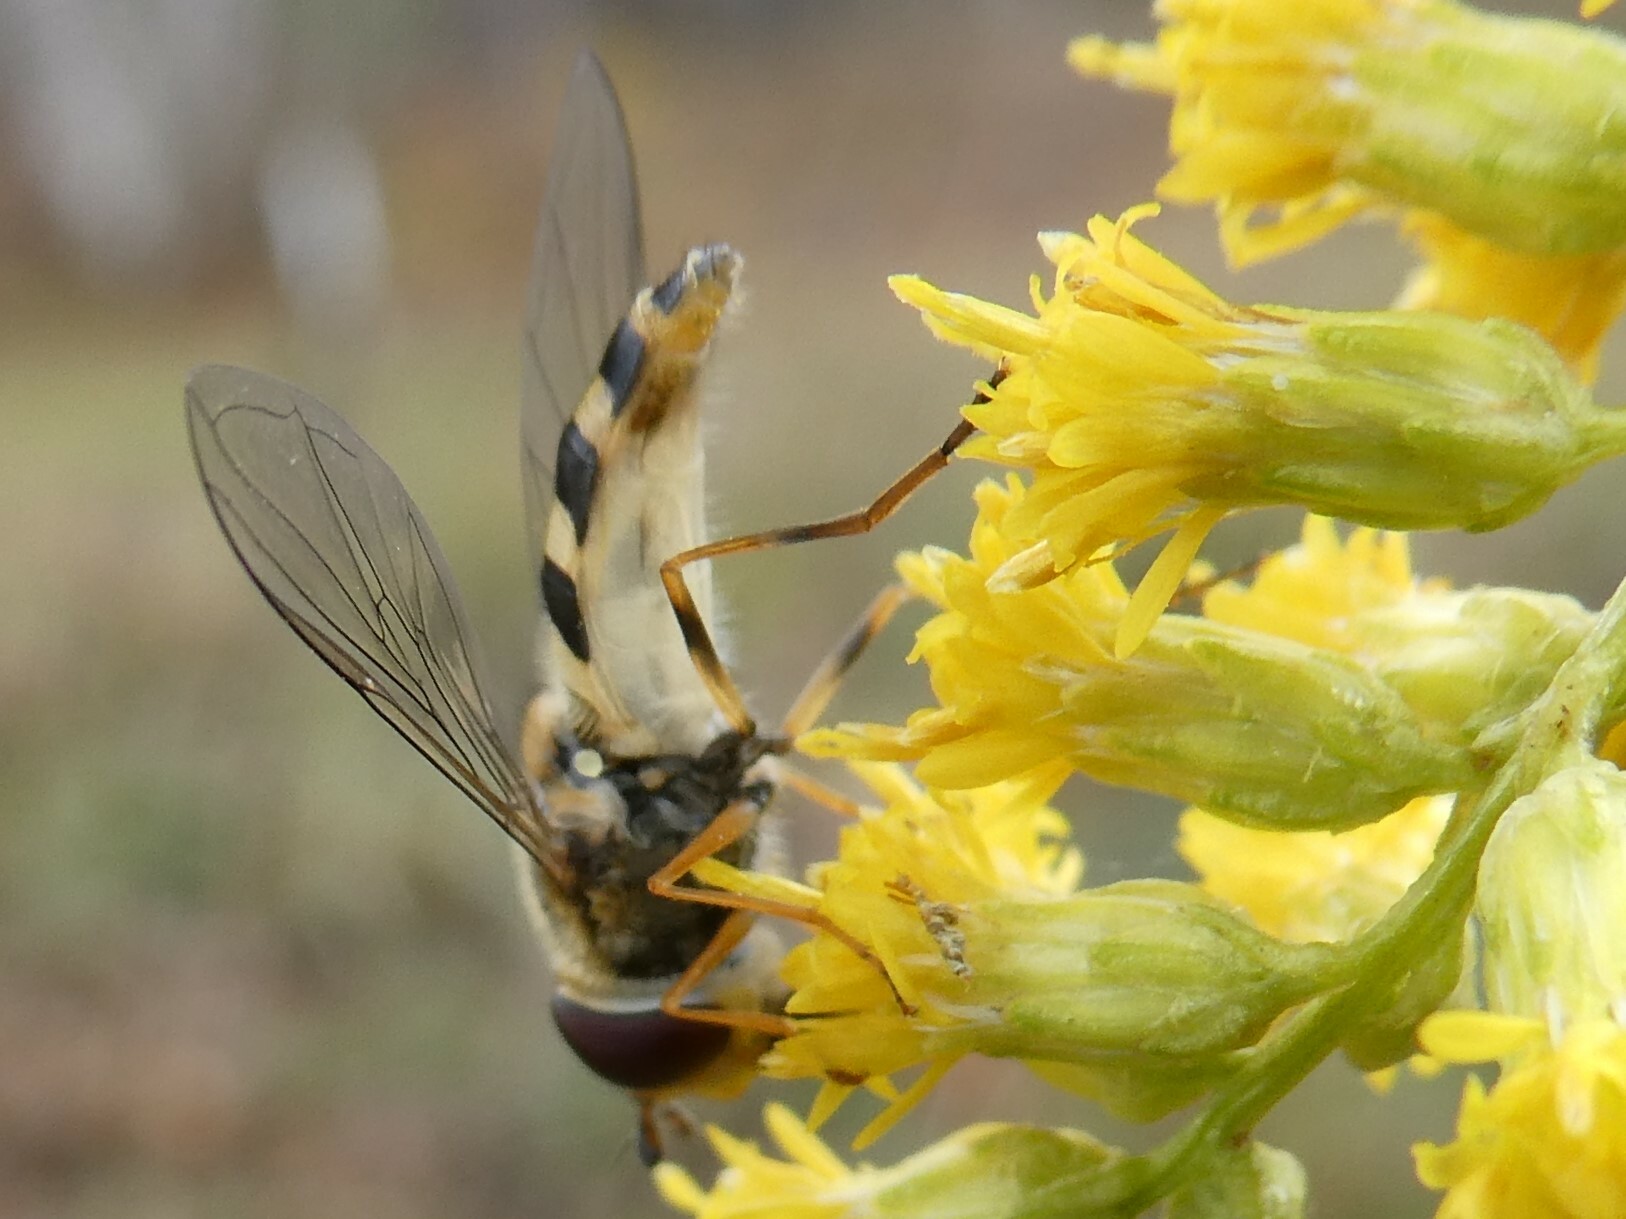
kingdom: Animalia
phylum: Arthropoda
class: Insecta
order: Diptera
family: Syrphidae
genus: Syrphus
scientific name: Syrphus rectus
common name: Yellow-legged flower fly
